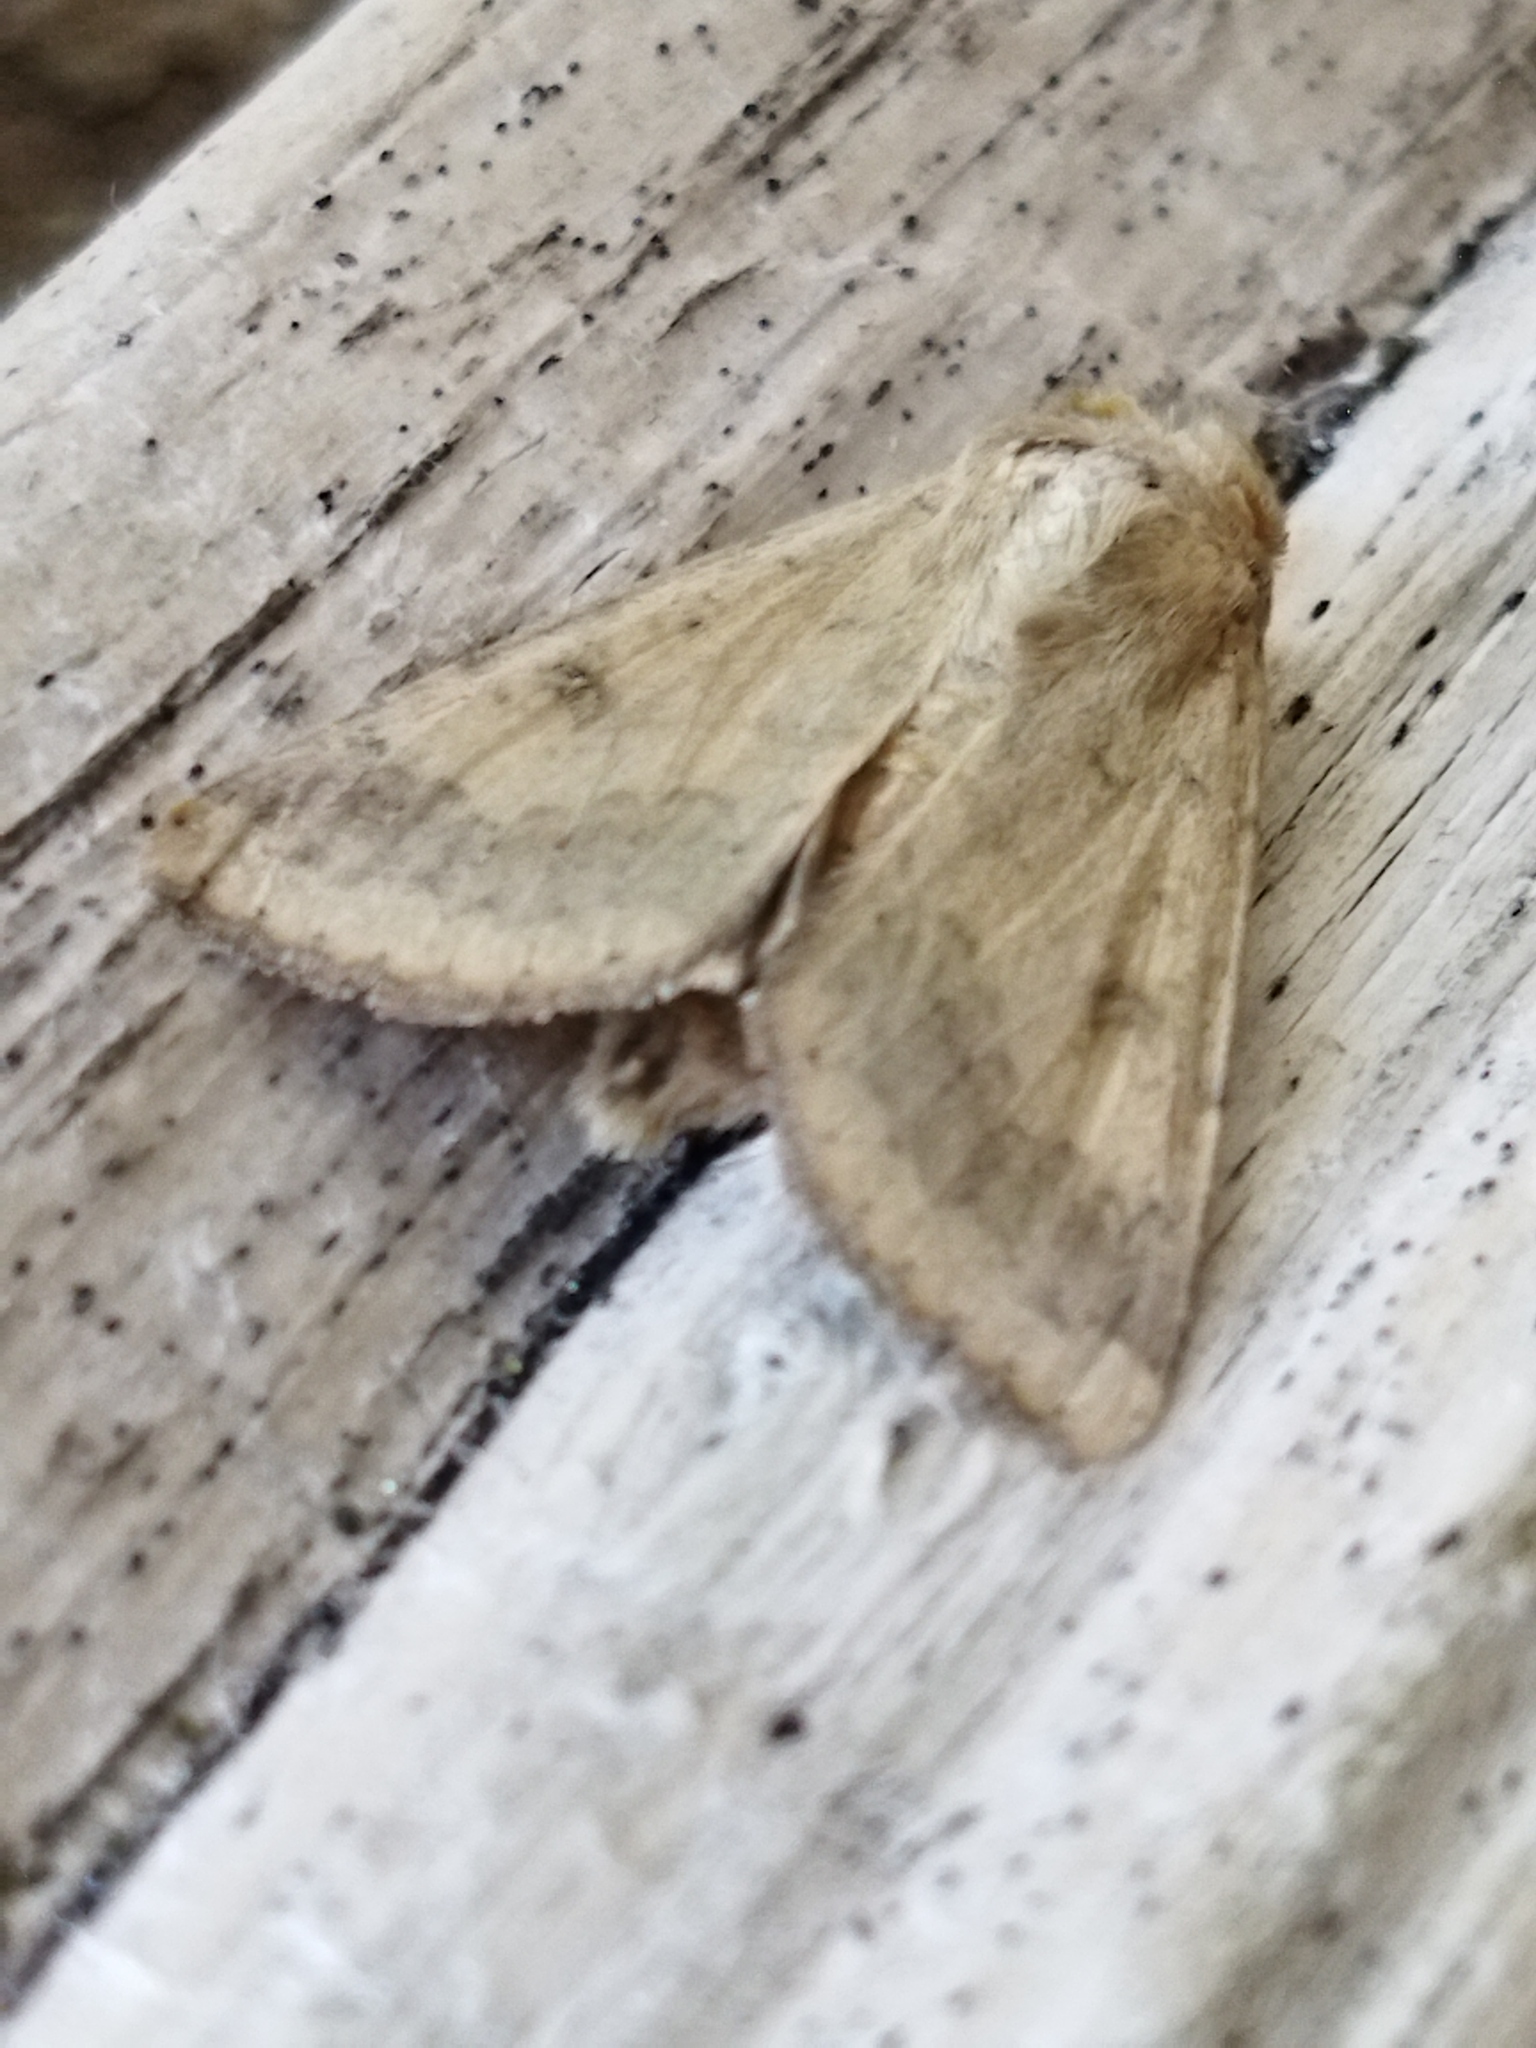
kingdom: Animalia
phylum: Arthropoda
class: Insecta
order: Lepidoptera
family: Noctuidae
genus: Helicoverpa
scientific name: Helicoverpa armigera
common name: Cotton bollworm
